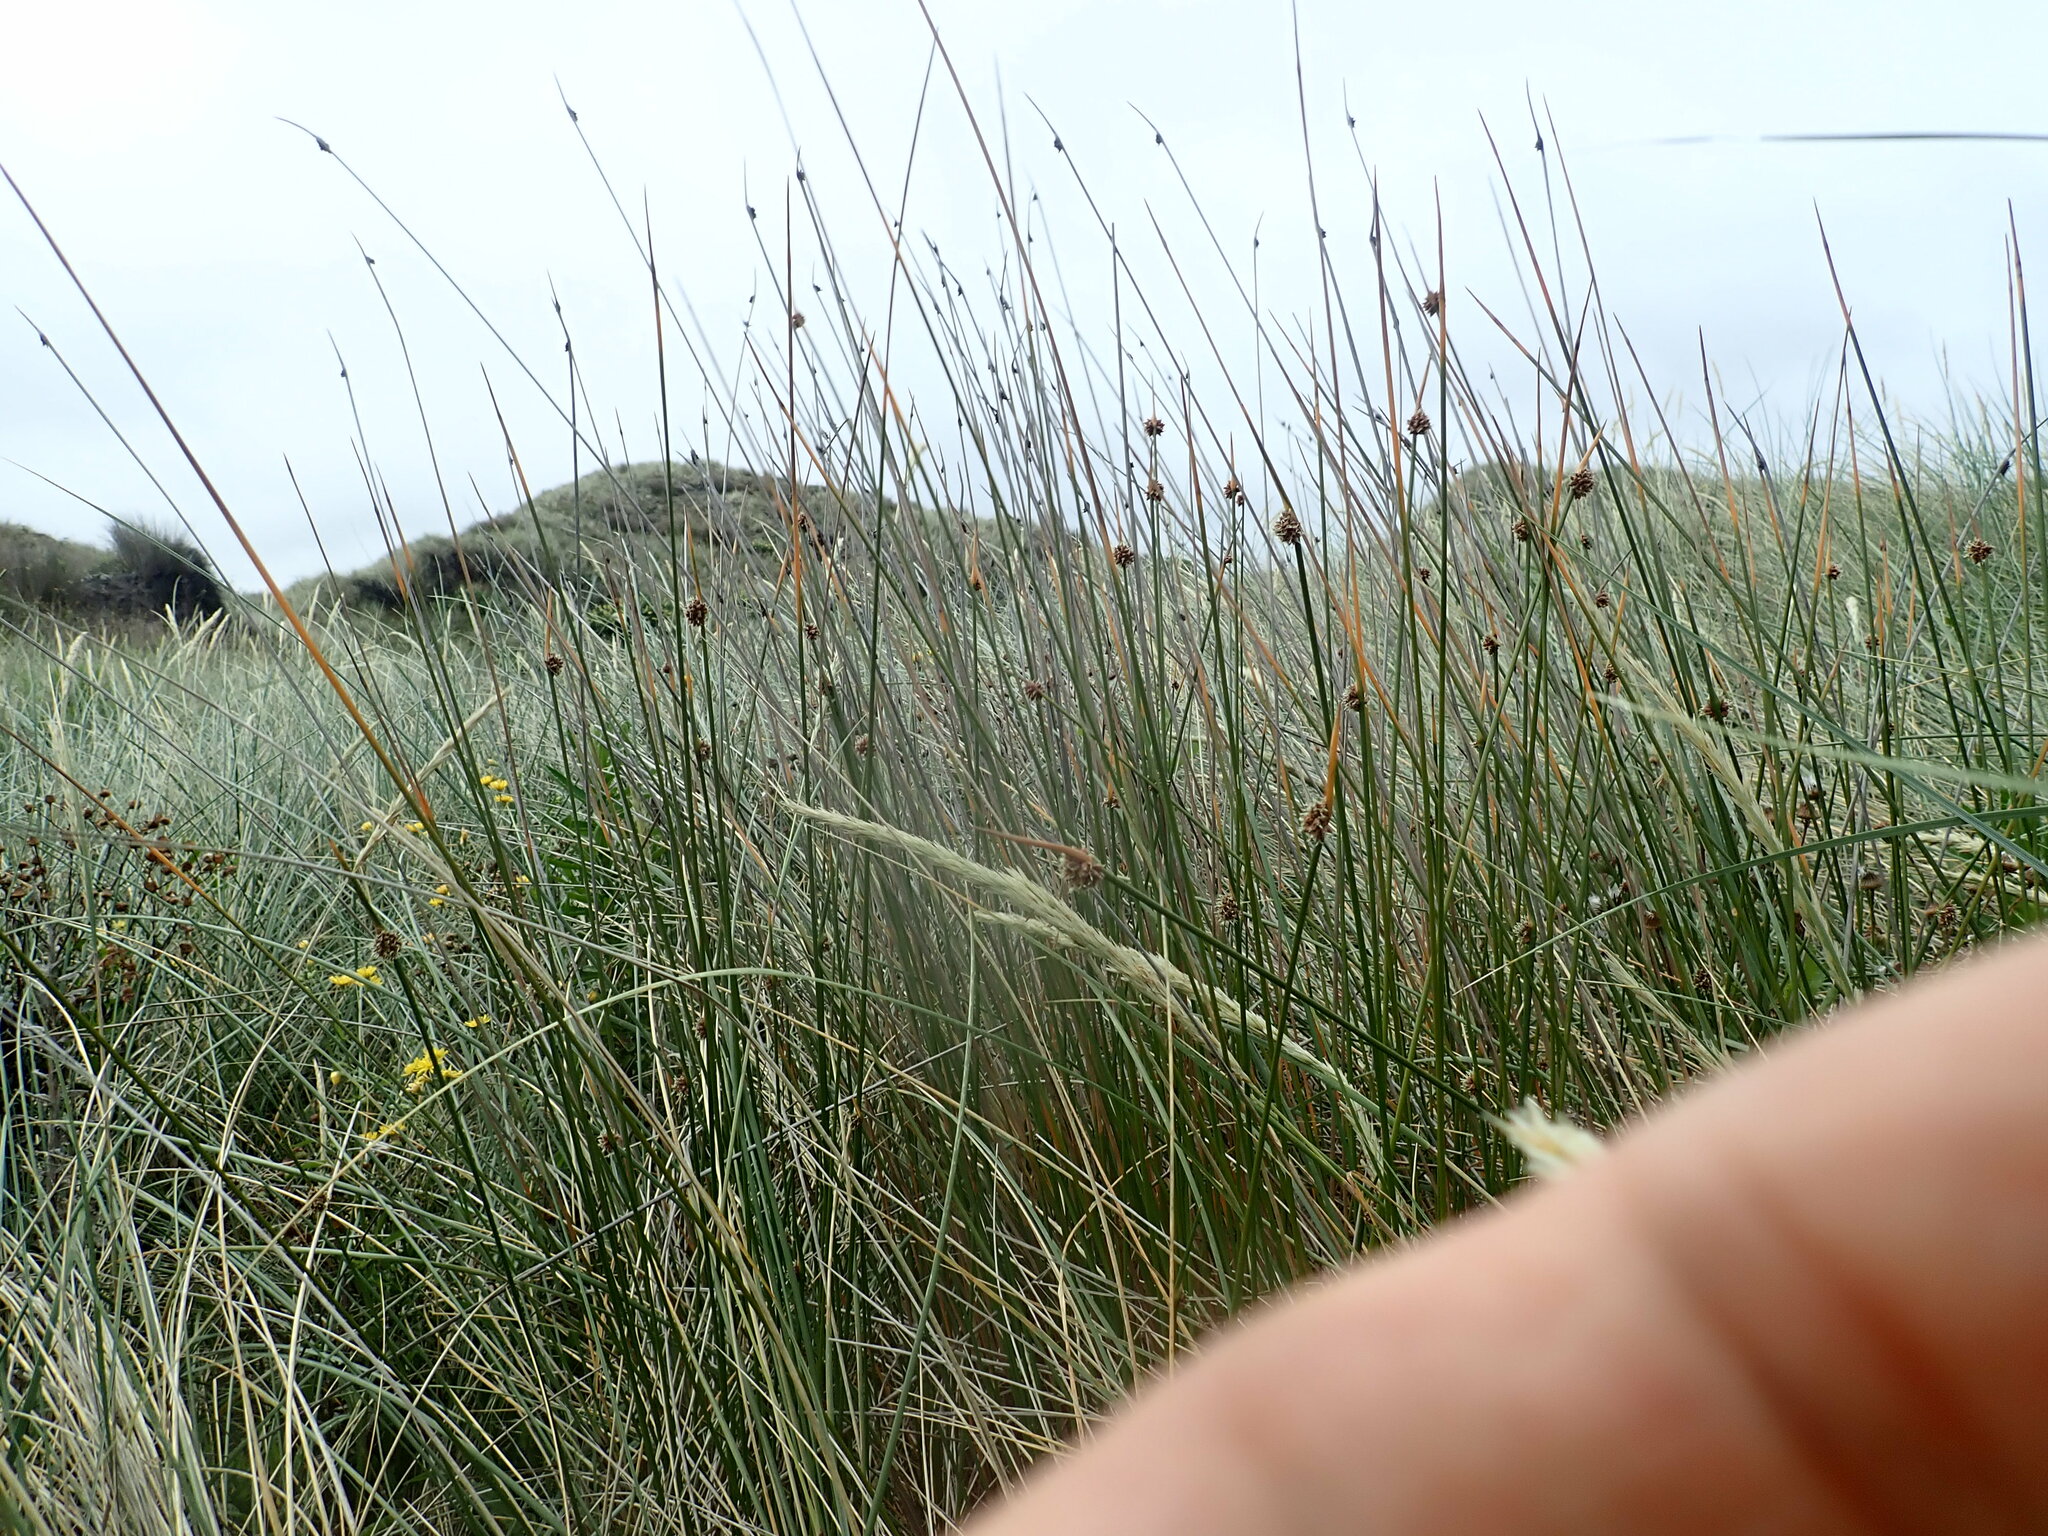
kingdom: Plantae
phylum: Tracheophyta
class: Liliopsida
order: Poales
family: Cyperaceae
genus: Ficinia
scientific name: Ficinia nodosa
